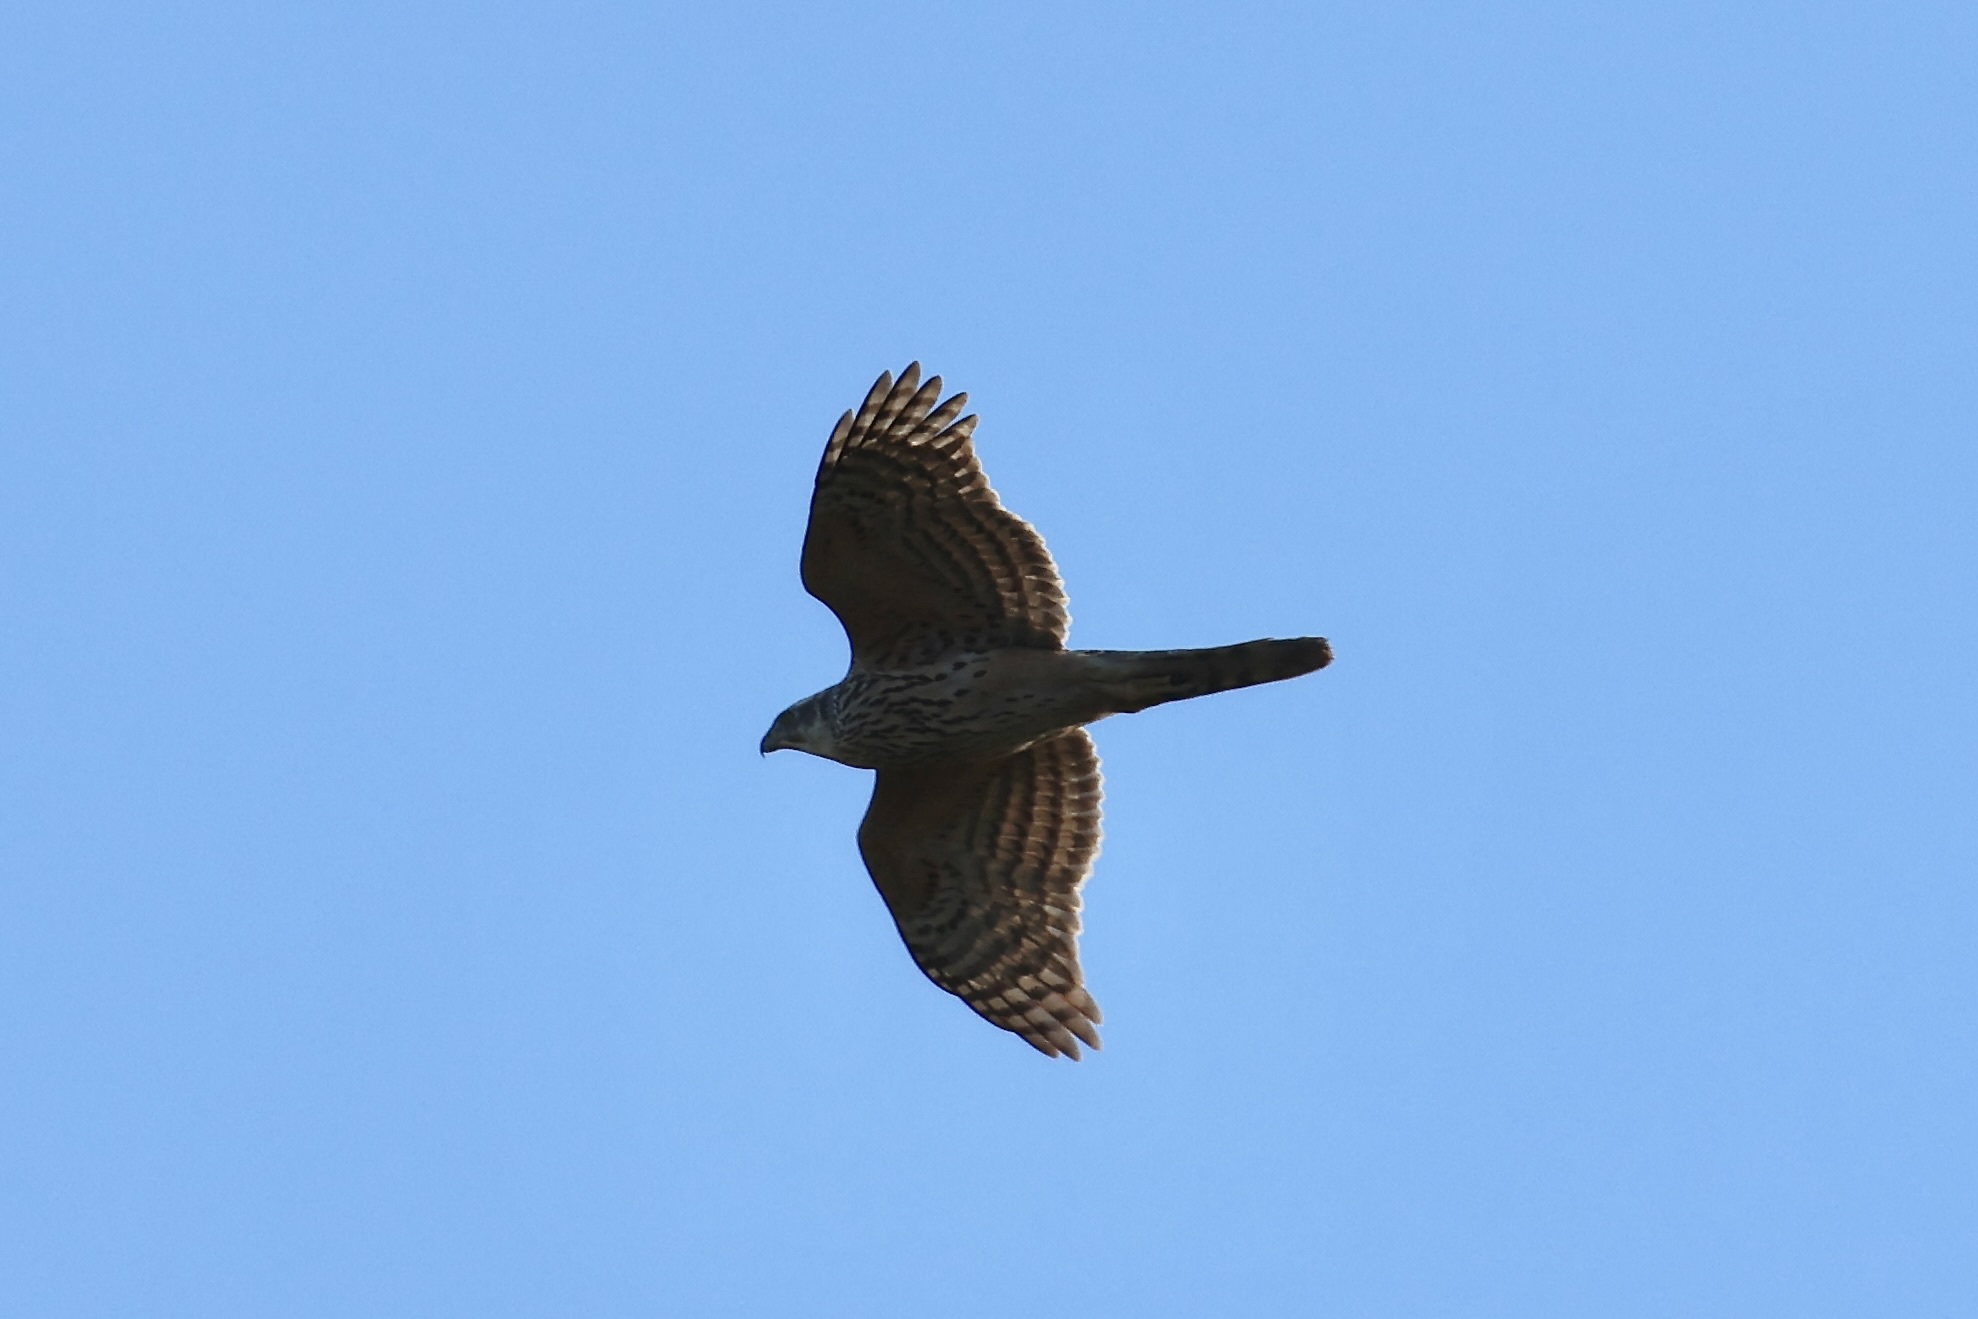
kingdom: Animalia
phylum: Chordata
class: Aves
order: Accipitriformes
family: Accipitridae
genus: Accipiter
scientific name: Accipiter gentilis
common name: Northern goshawk
